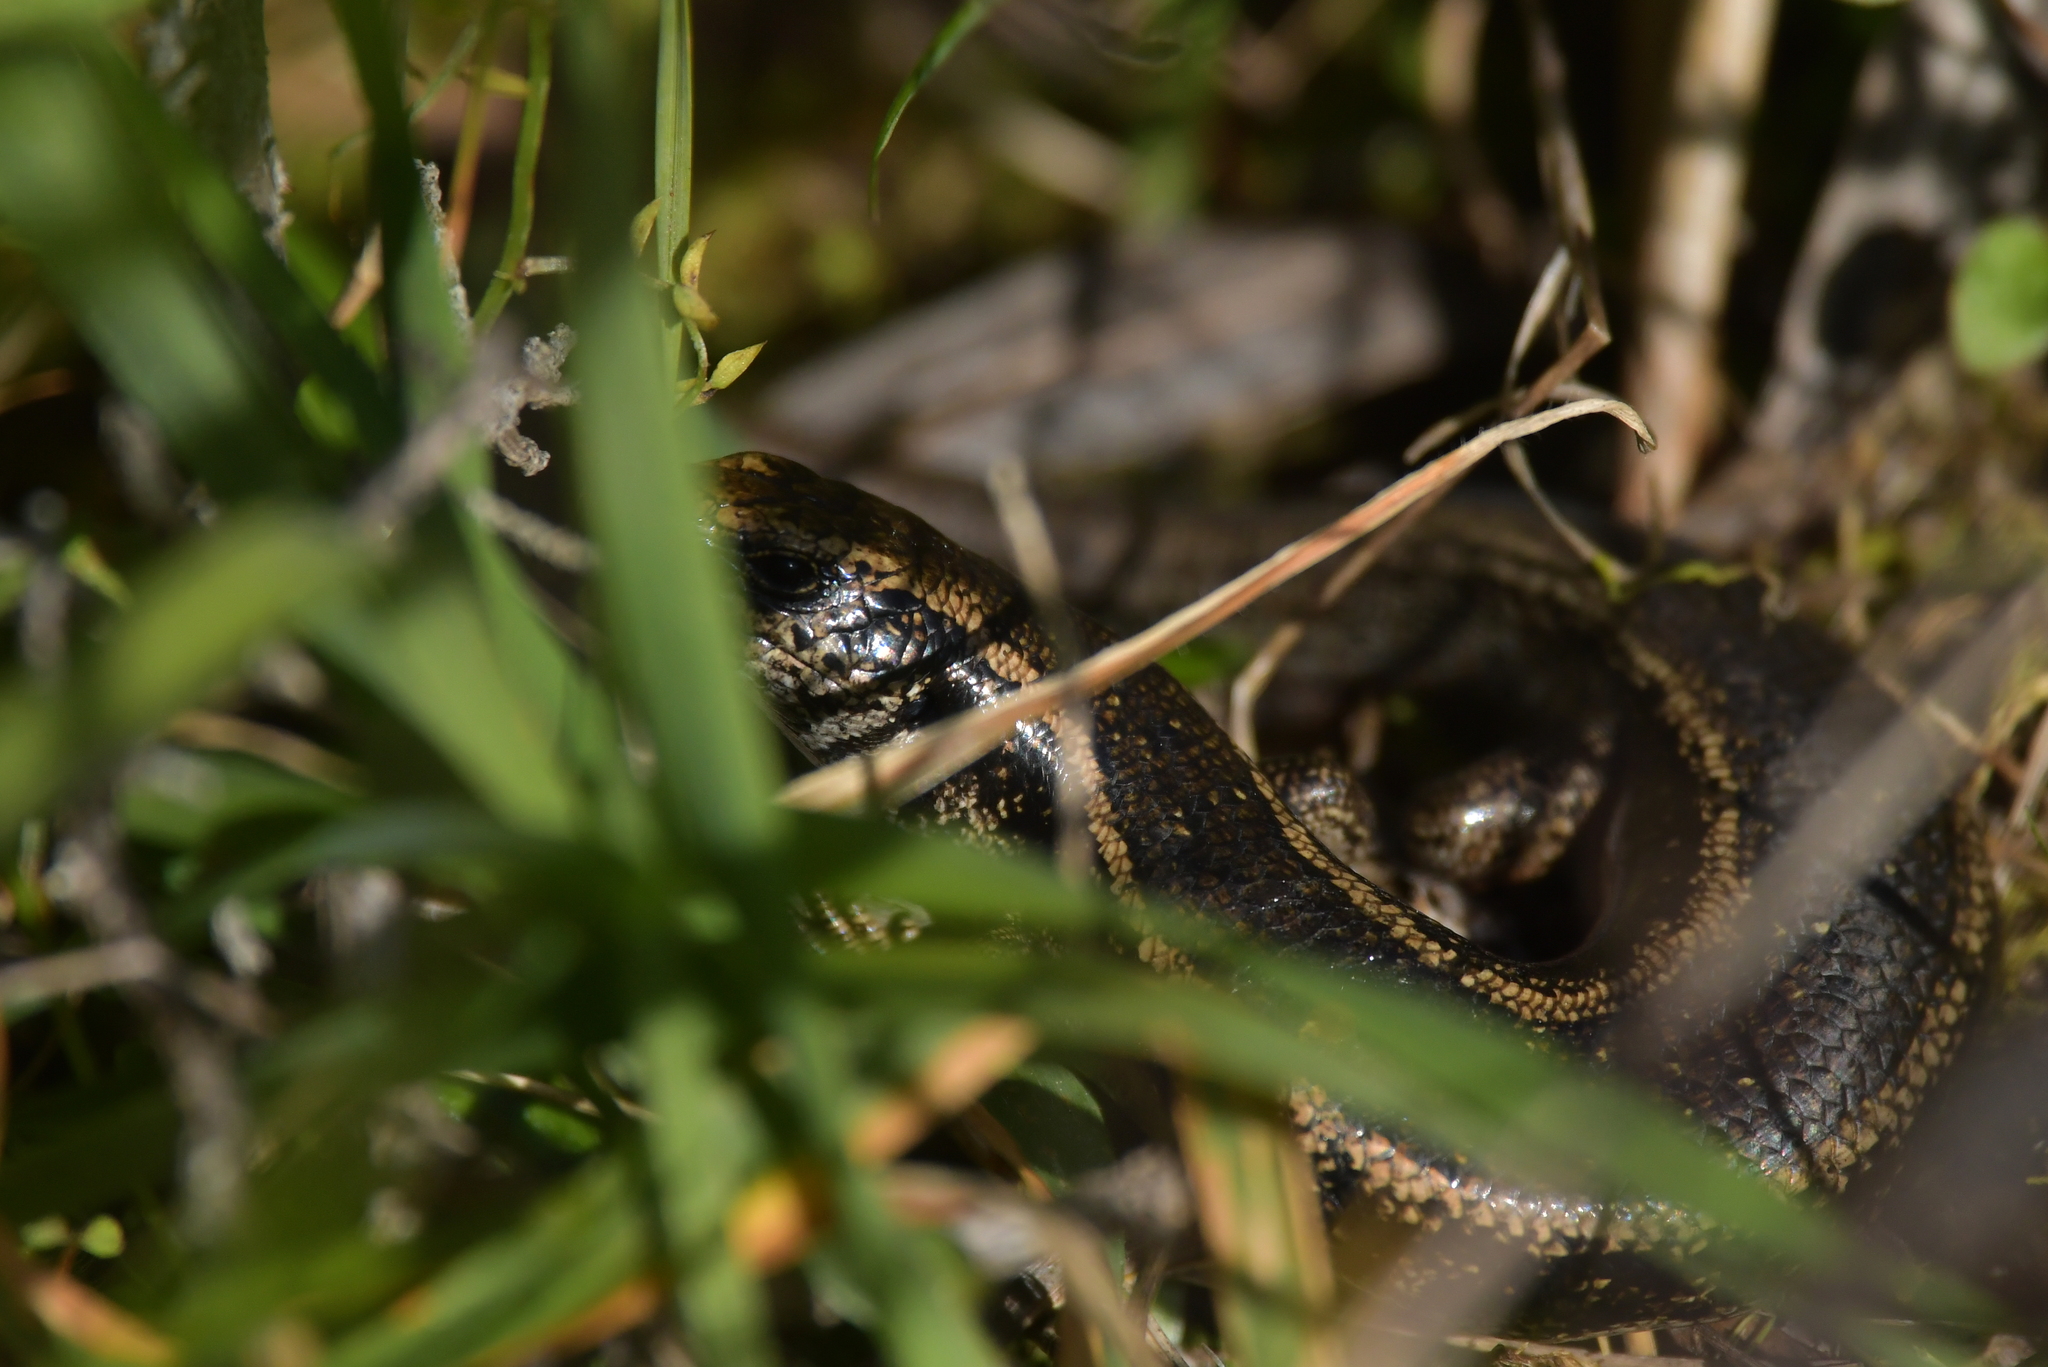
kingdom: Animalia
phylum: Chordata
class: Squamata
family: Scincidae
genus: Oligosoma
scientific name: Oligosoma kokowai
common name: Northern spotted skink
